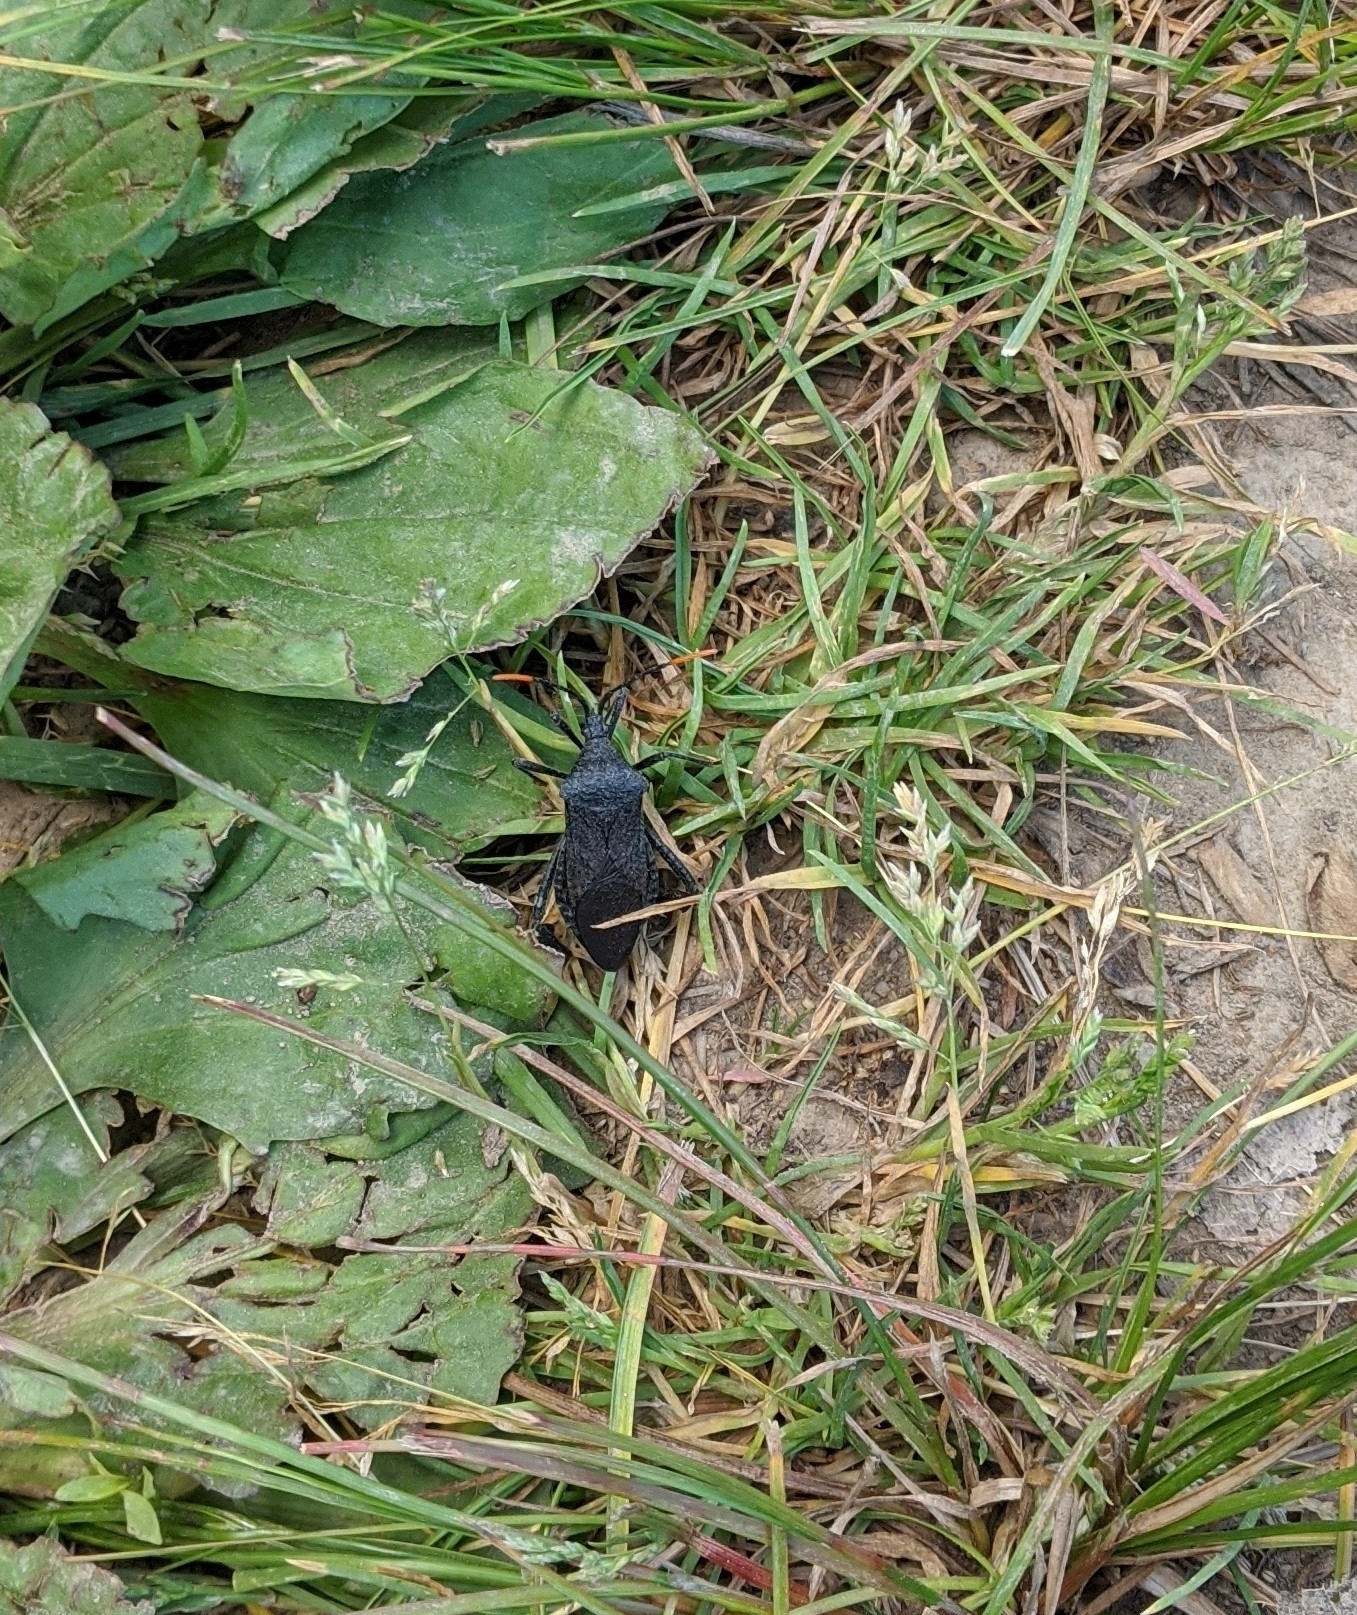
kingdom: Animalia
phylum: Arthropoda
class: Insecta
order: Hemiptera
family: Coreidae
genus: Acanthocephala
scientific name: Acanthocephala terminalis
